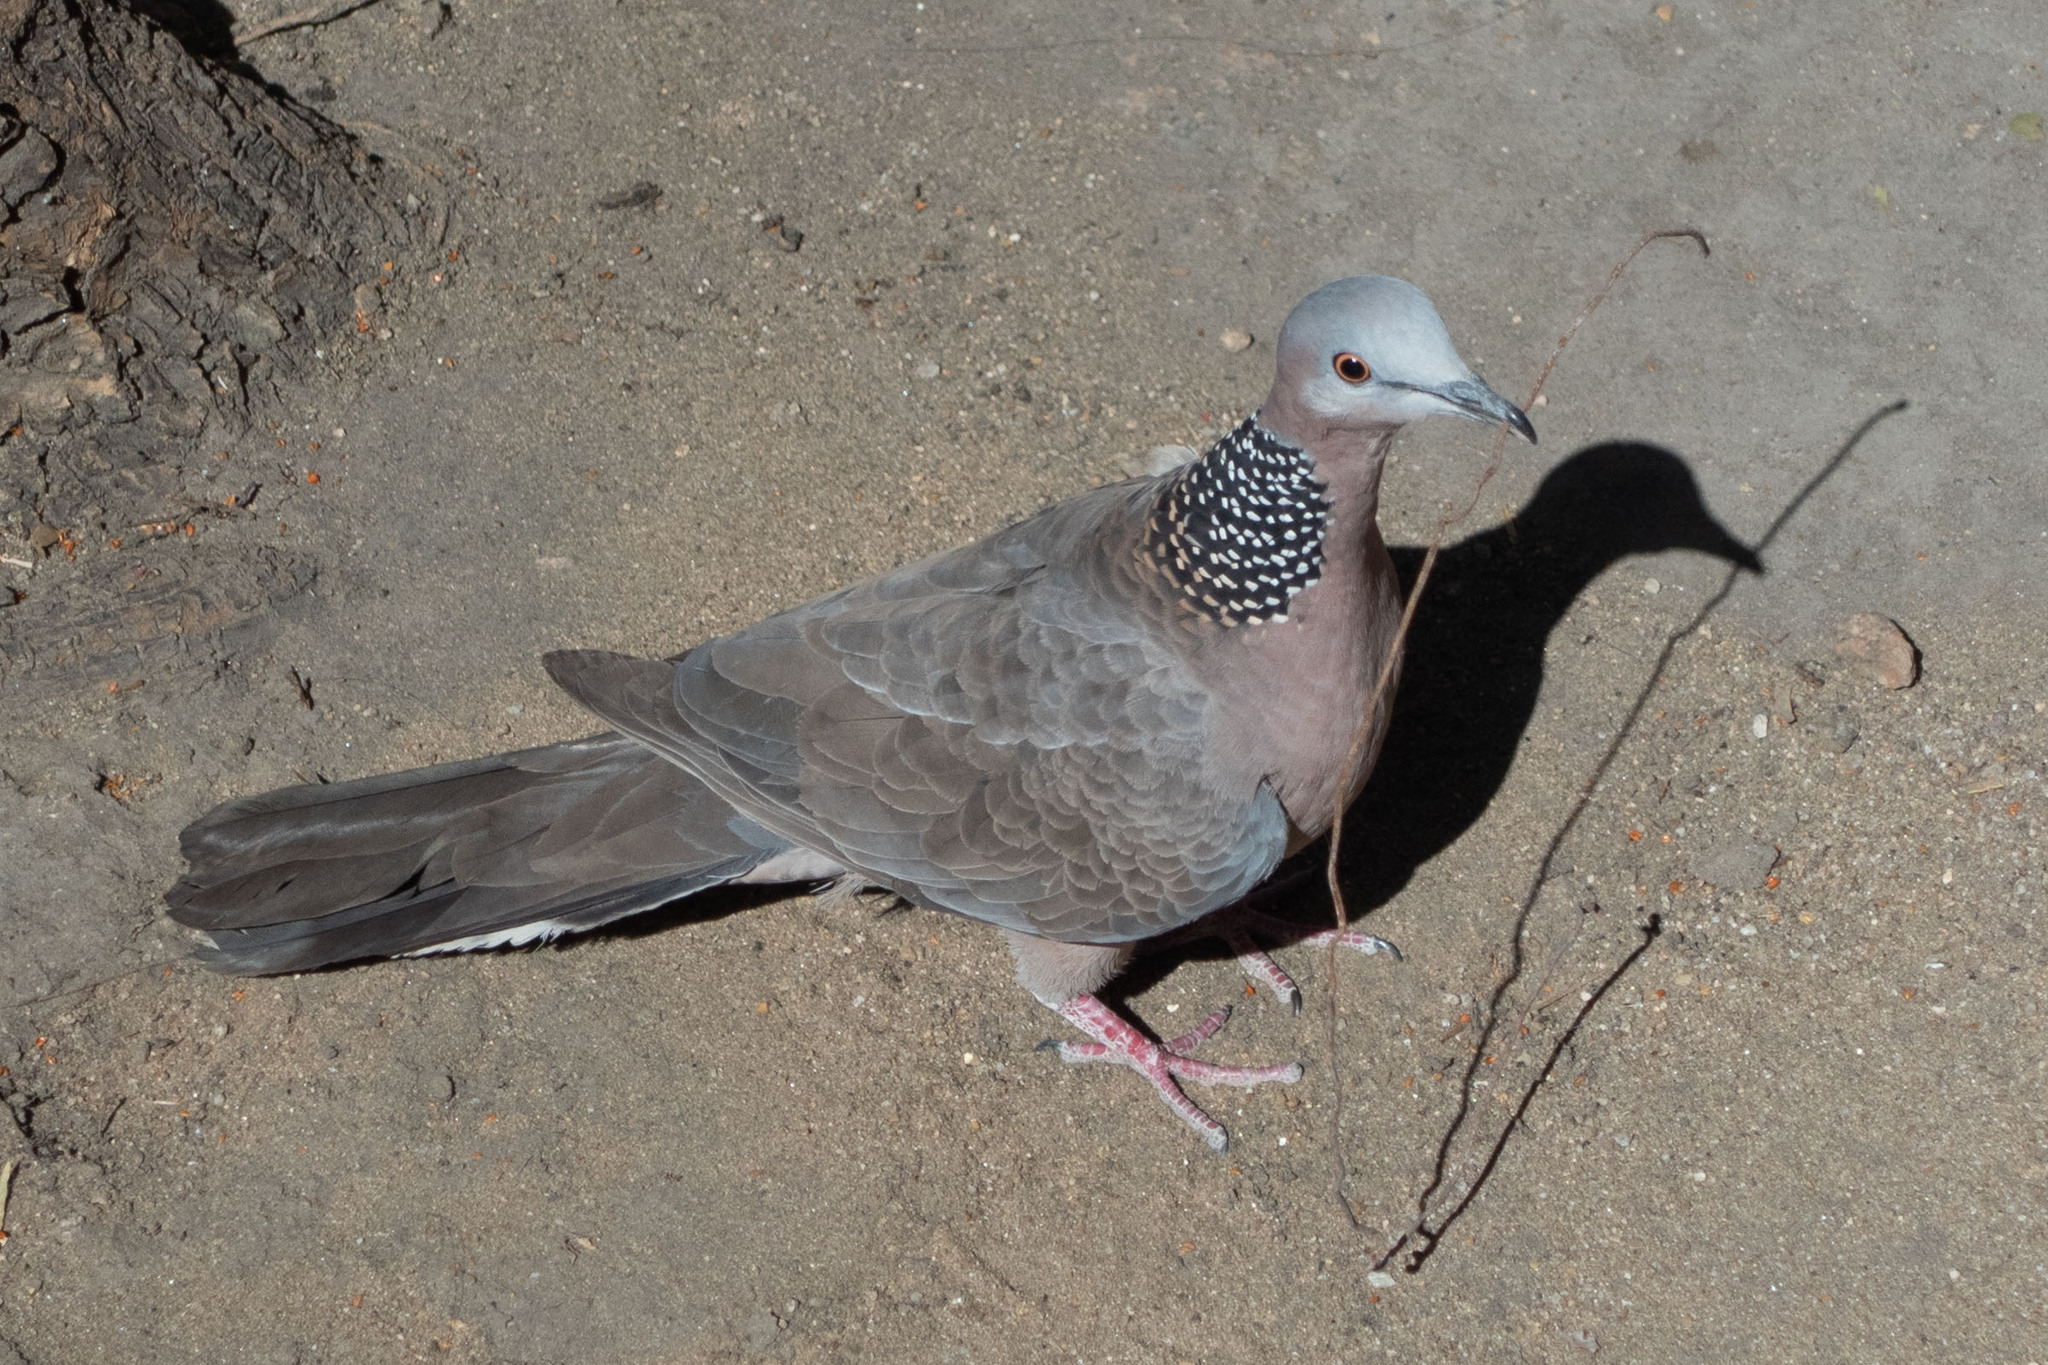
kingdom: Animalia
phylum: Chordata
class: Aves
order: Columbiformes
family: Columbidae
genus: Spilopelia
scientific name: Spilopelia chinensis
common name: Spotted dove
